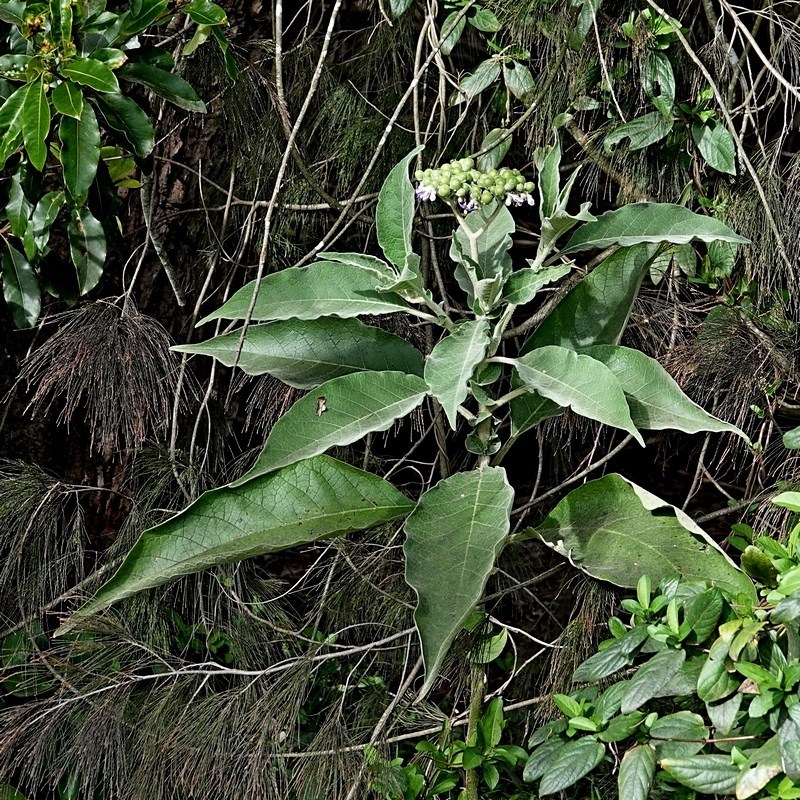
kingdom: Plantae
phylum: Tracheophyta
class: Magnoliopsida
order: Solanales
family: Solanaceae
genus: Solanum
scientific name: Solanum mauritianum
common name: Earleaf nightshade
